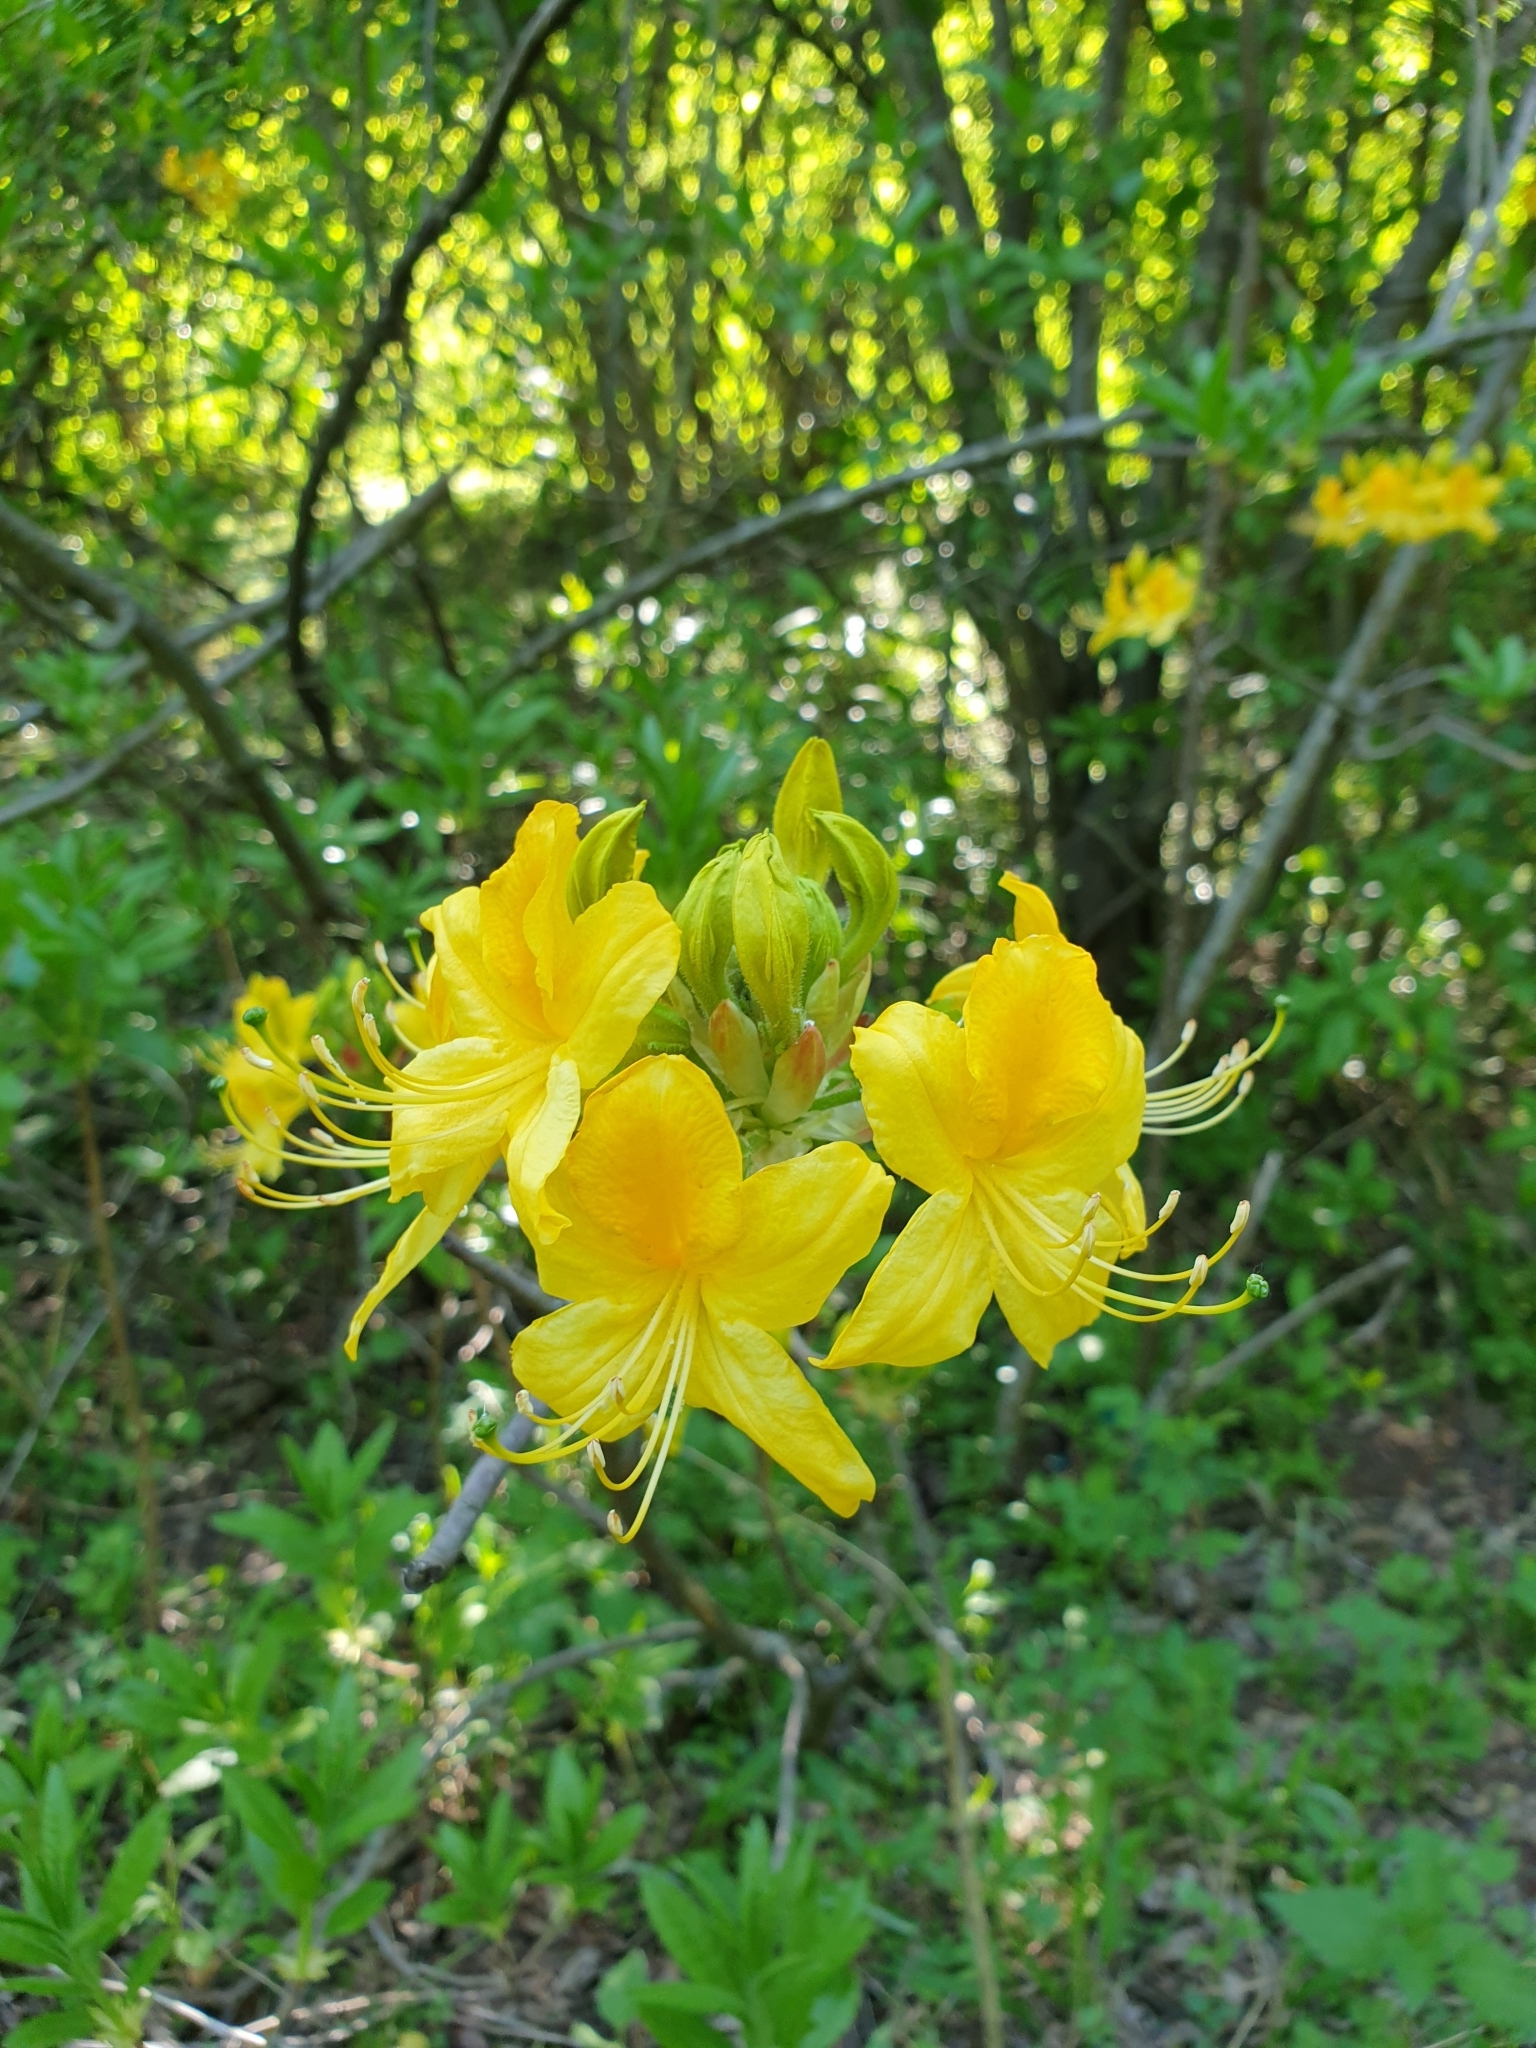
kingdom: Plantae
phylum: Tracheophyta
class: Magnoliopsida
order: Ericales
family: Ericaceae
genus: Rhododendron
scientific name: Rhododendron luteum
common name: Yellow azalea
